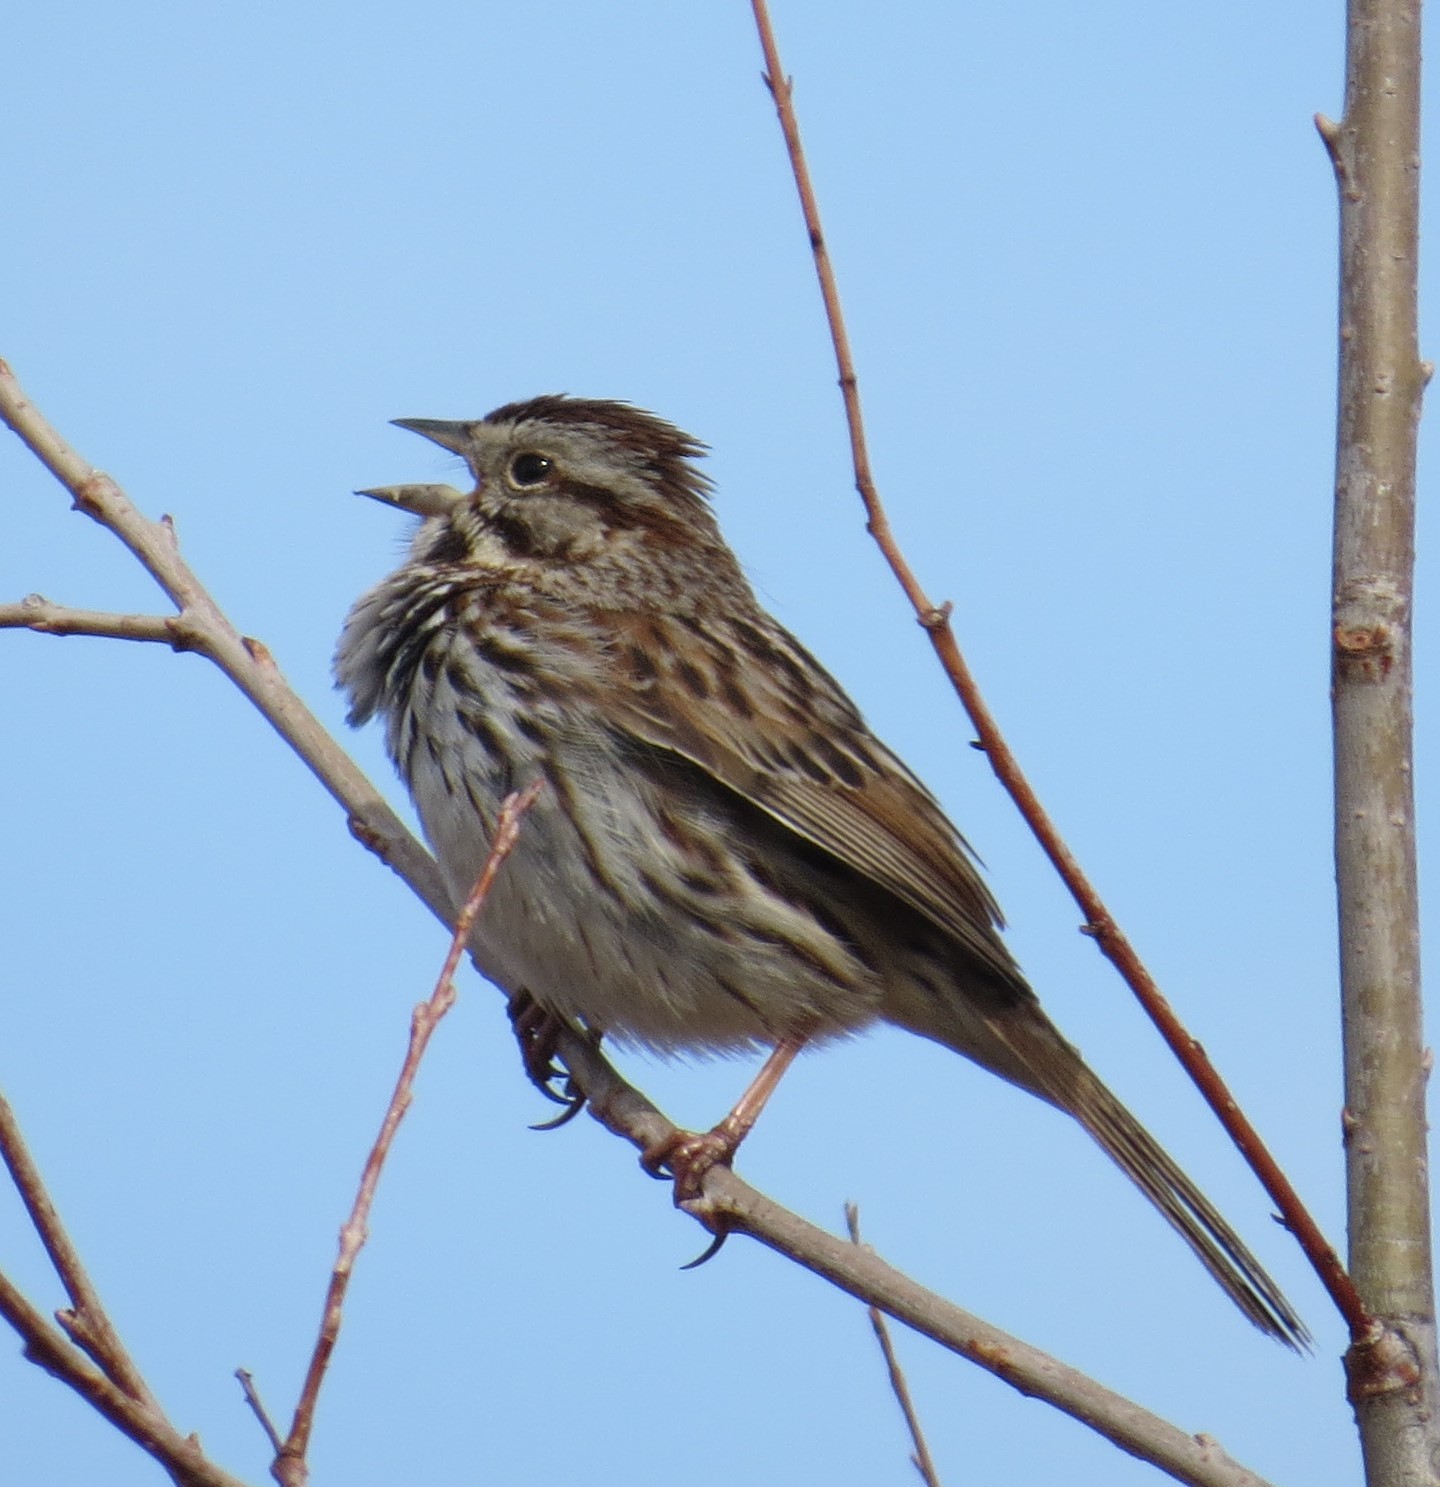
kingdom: Animalia
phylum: Chordata
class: Aves
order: Passeriformes
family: Passerellidae
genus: Melospiza
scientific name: Melospiza melodia
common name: Song sparrow
